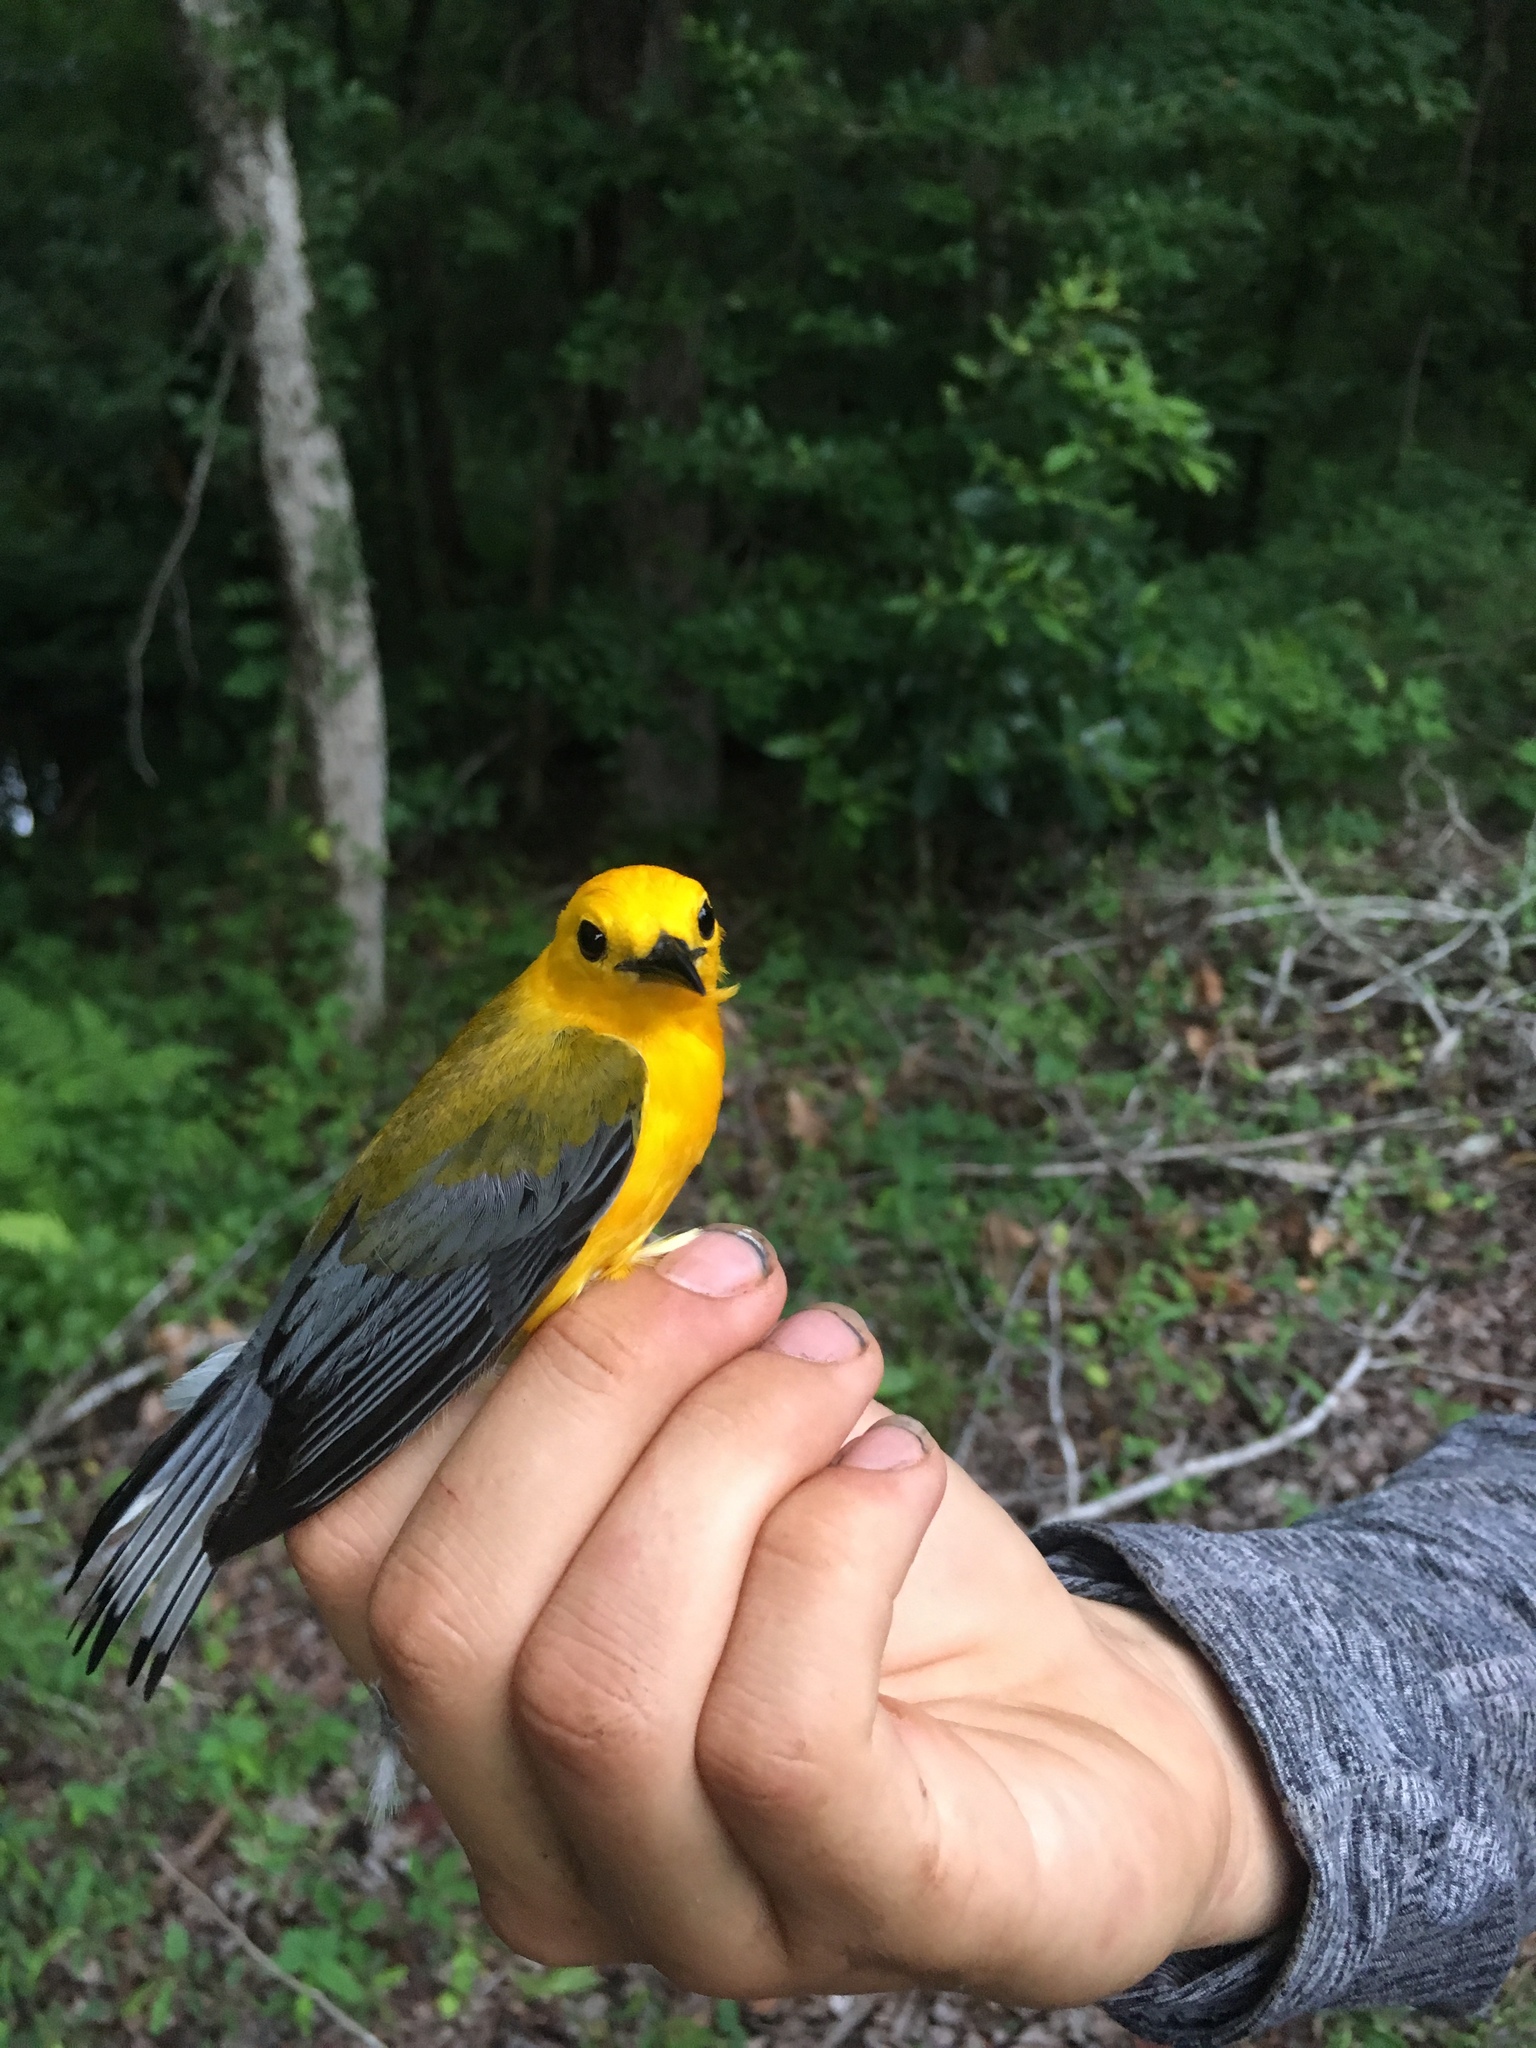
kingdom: Animalia
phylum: Chordata
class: Aves
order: Passeriformes
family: Parulidae
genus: Protonotaria
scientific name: Protonotaria citrea
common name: Prothonotary warbler
